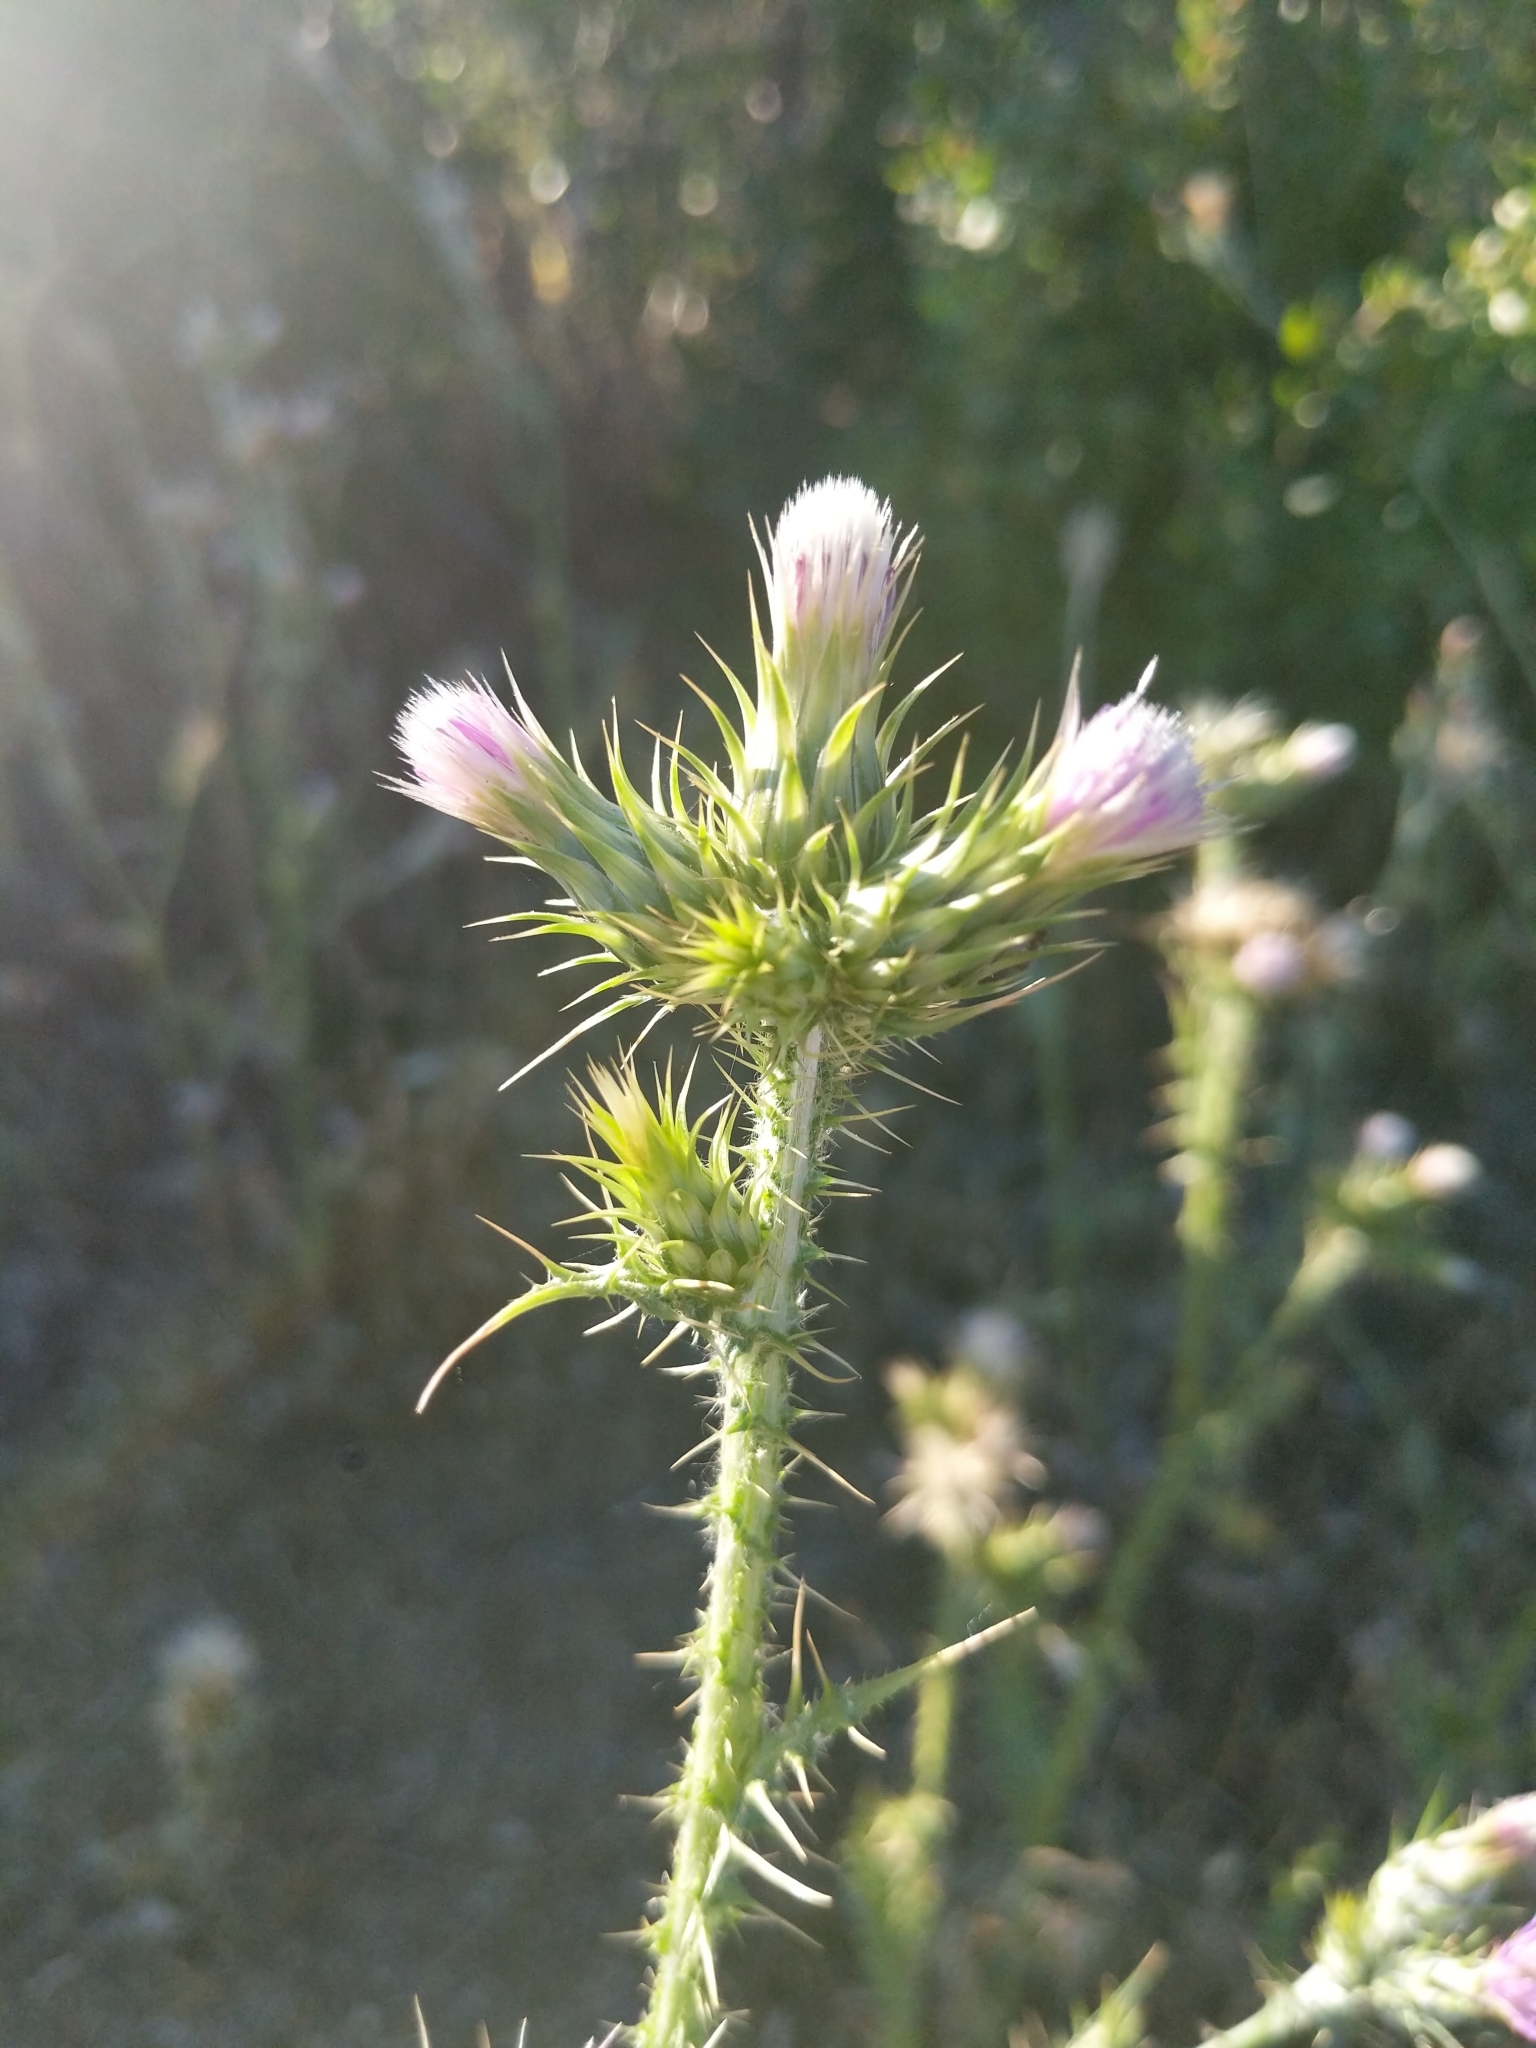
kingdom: Plantae
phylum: Tracheophyta
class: Magnoliopsida
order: Asterales
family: Asteraceae
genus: Carduus
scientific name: Carduus tenuiflorus
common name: Slender thistle
